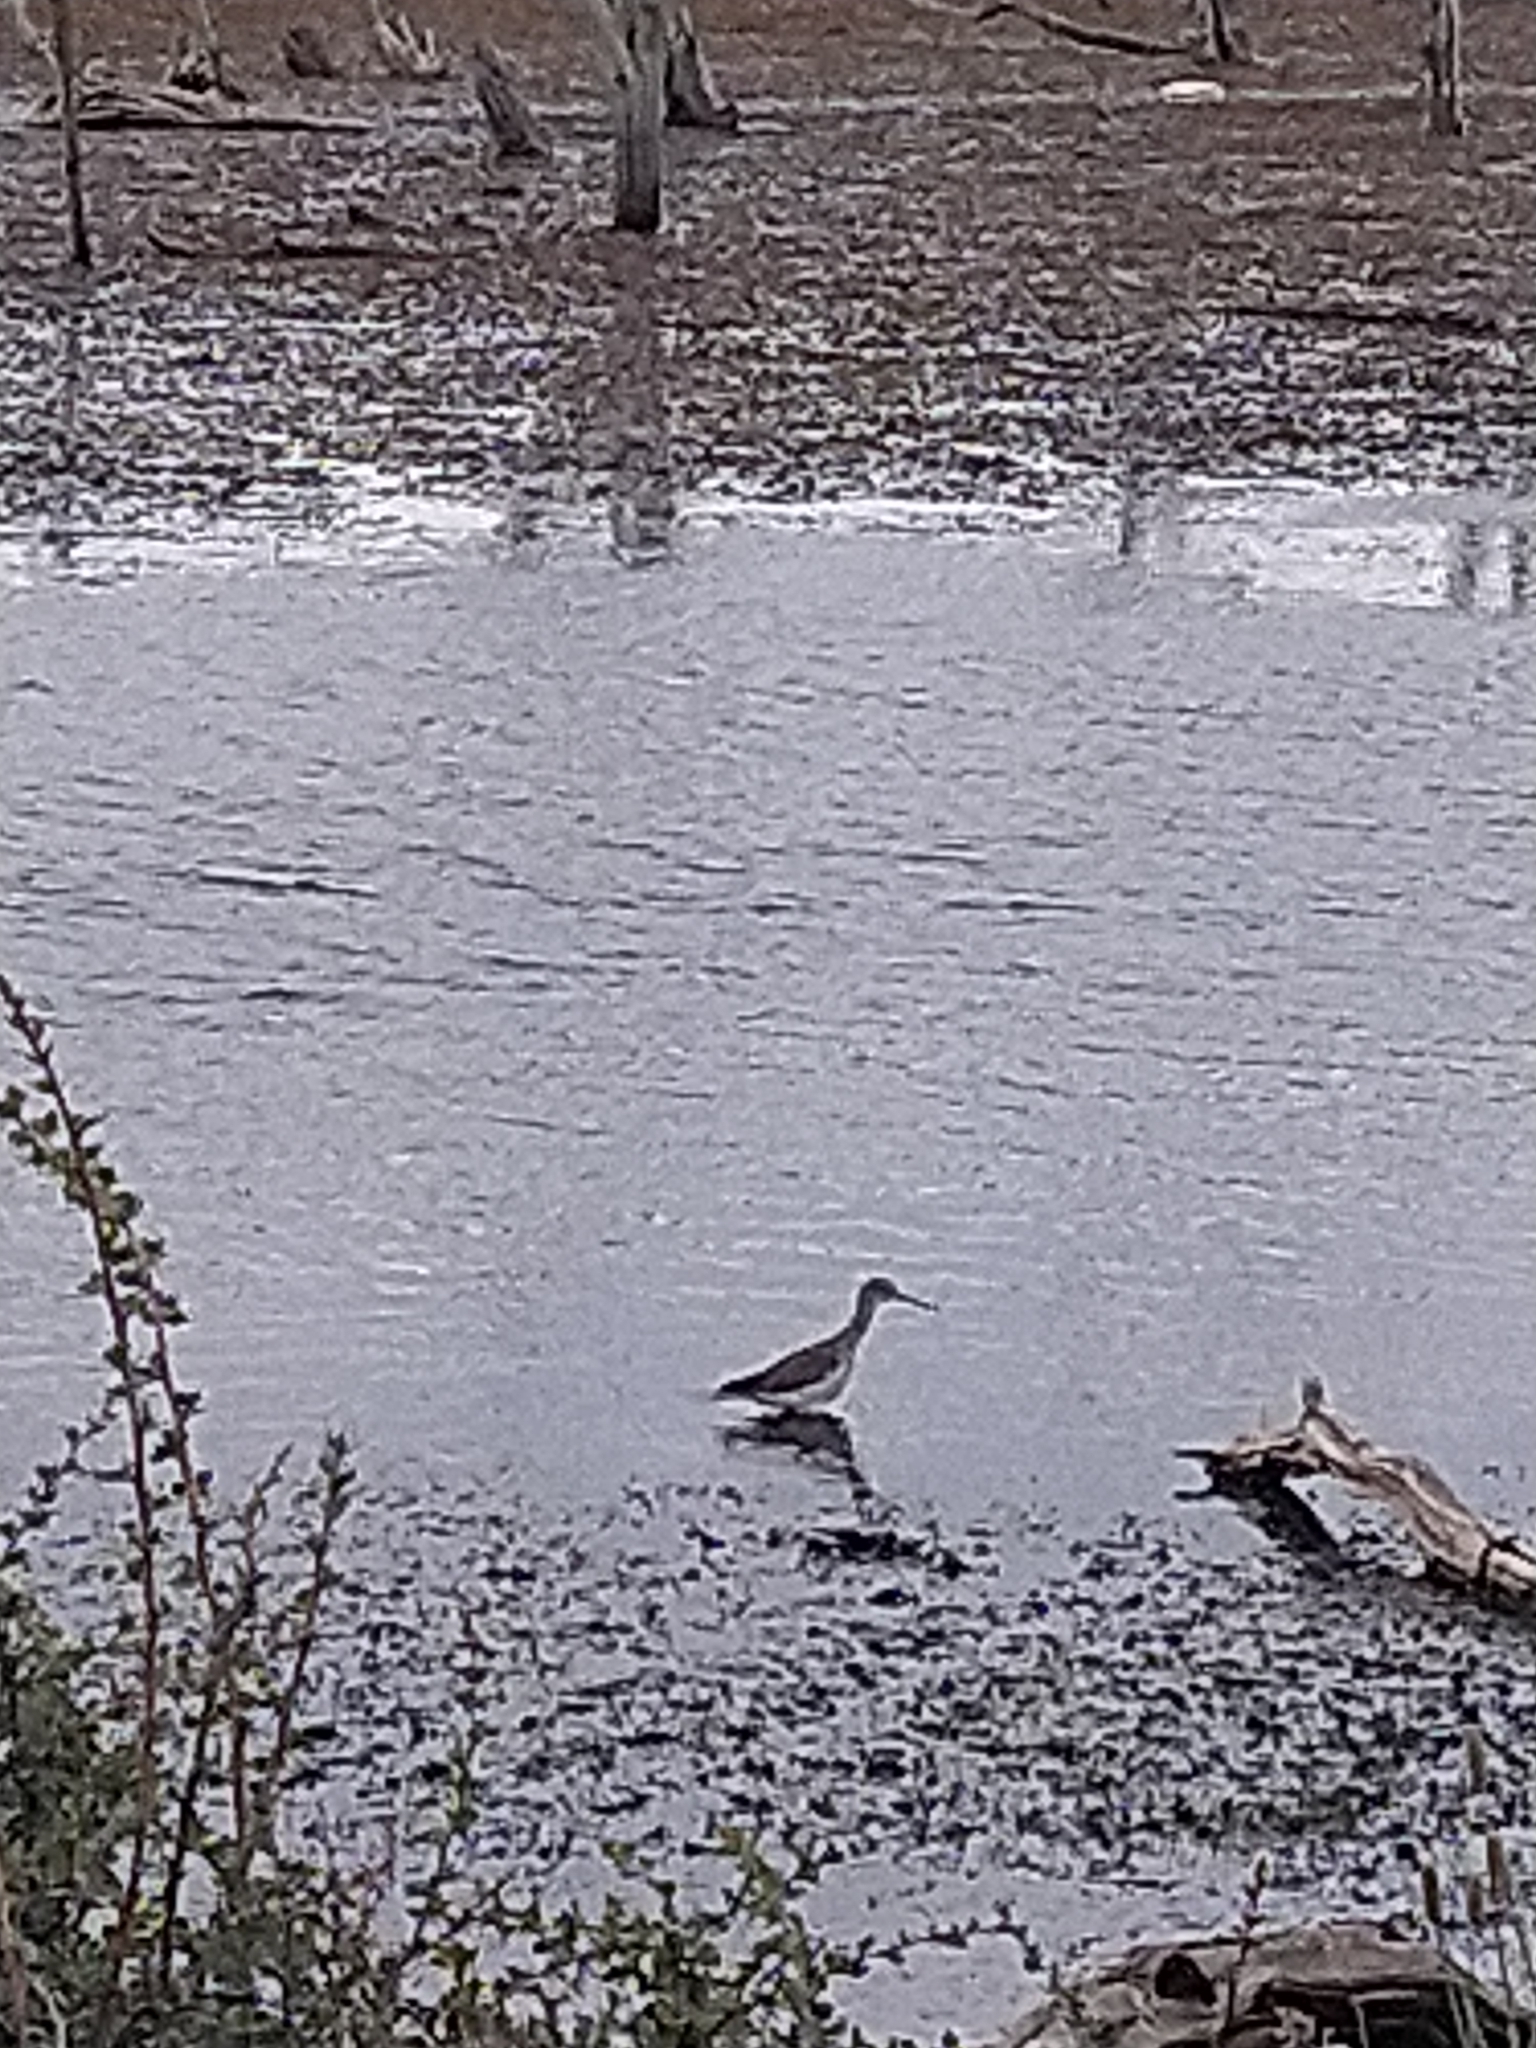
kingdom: Animalia
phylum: Chordata
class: Aves
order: Charadriiformes
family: Scolopacidae
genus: Tringa
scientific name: Tringa melanoleuca
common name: Greater yellowlegs
